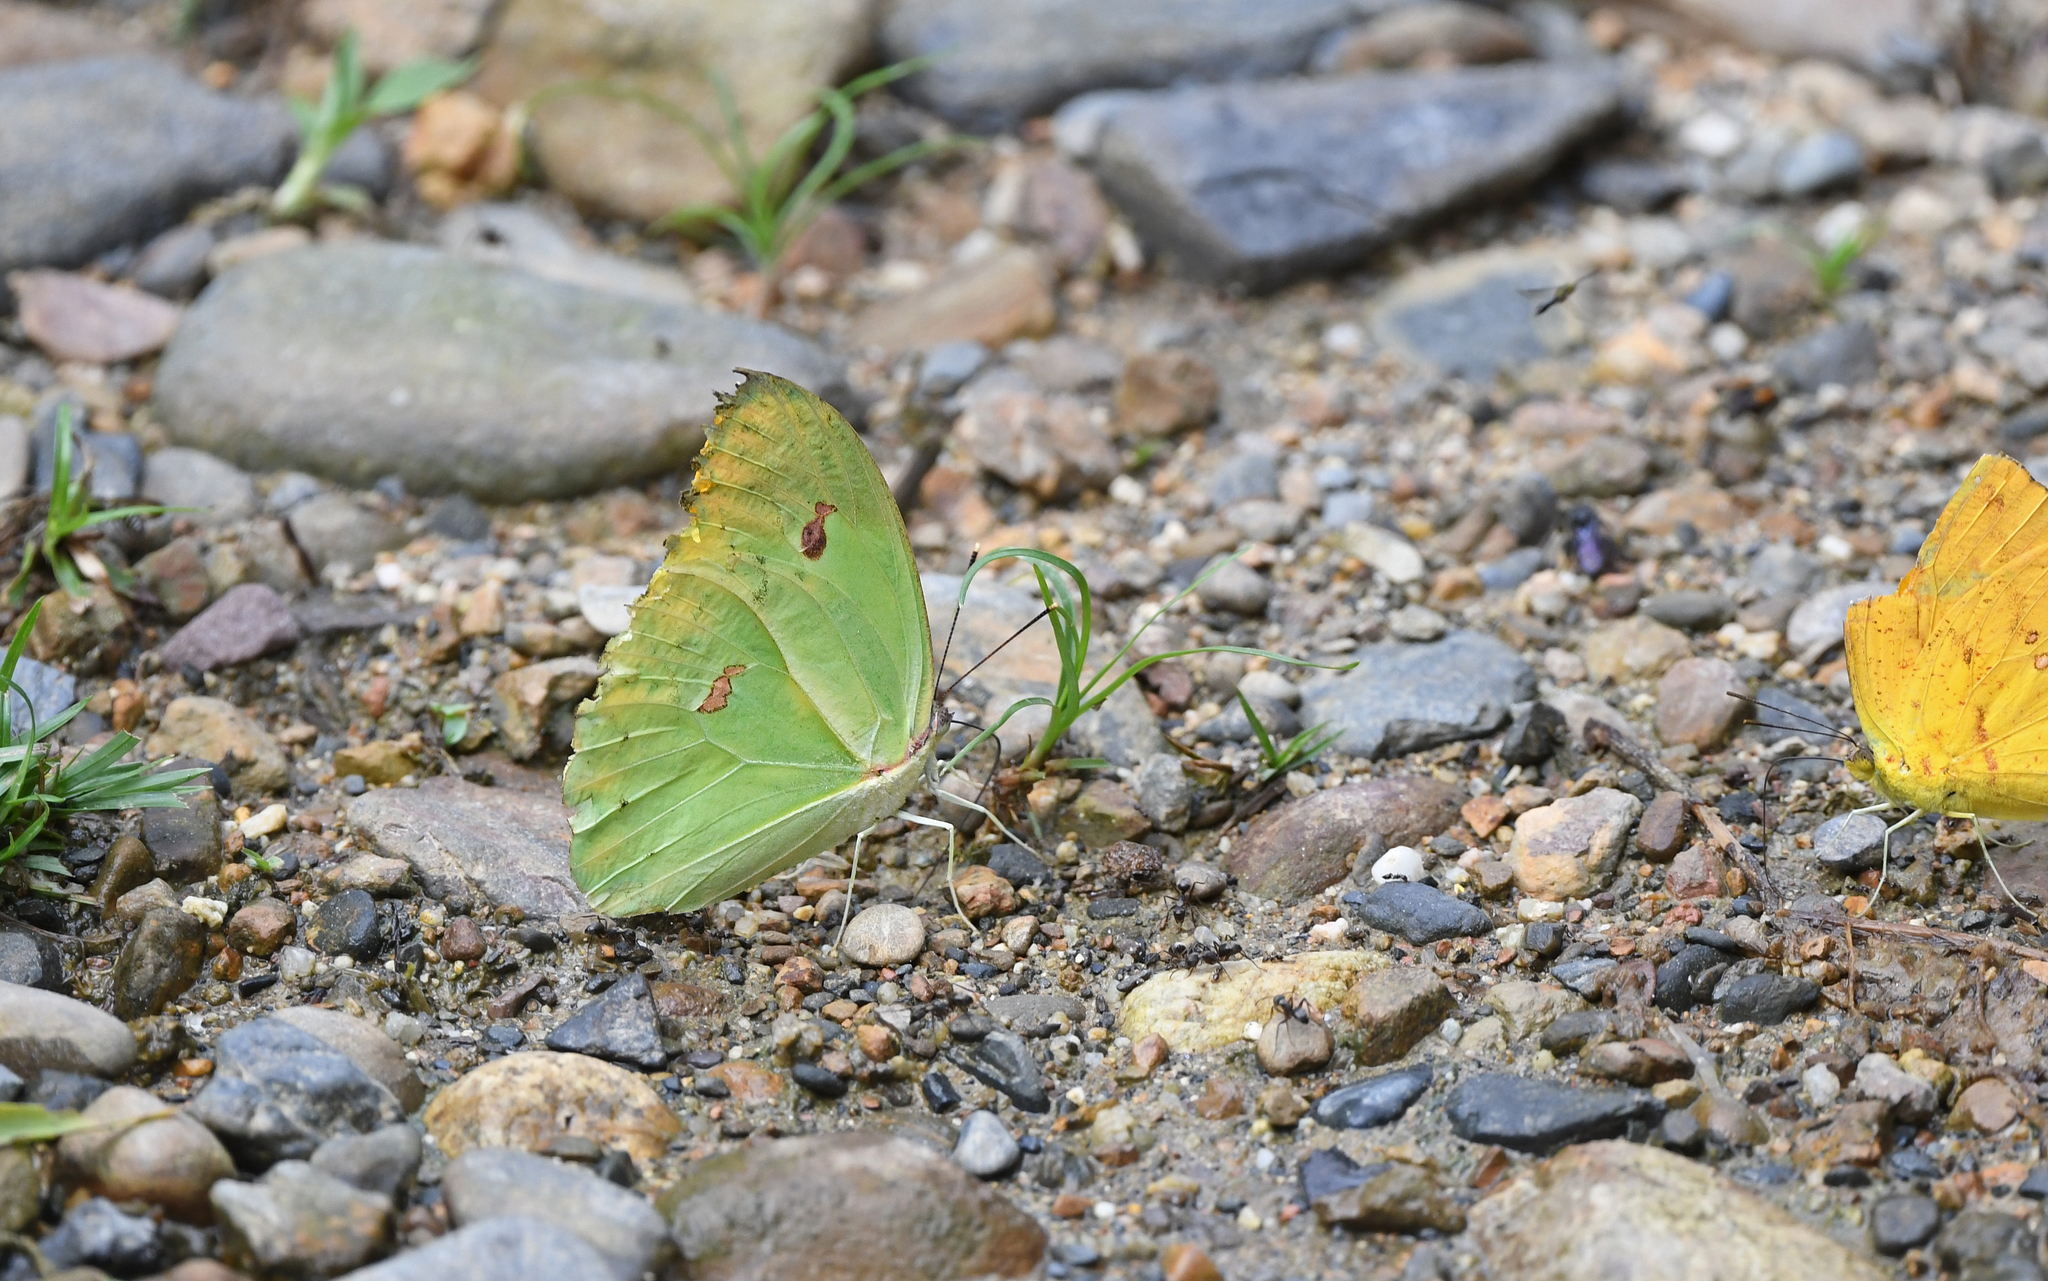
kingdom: Animalia
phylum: Arthropoda
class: Insecta
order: Lepidoptera
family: Pieridae
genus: Anteos
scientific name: Anteos menippe
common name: Orangetip angled-sulphur
